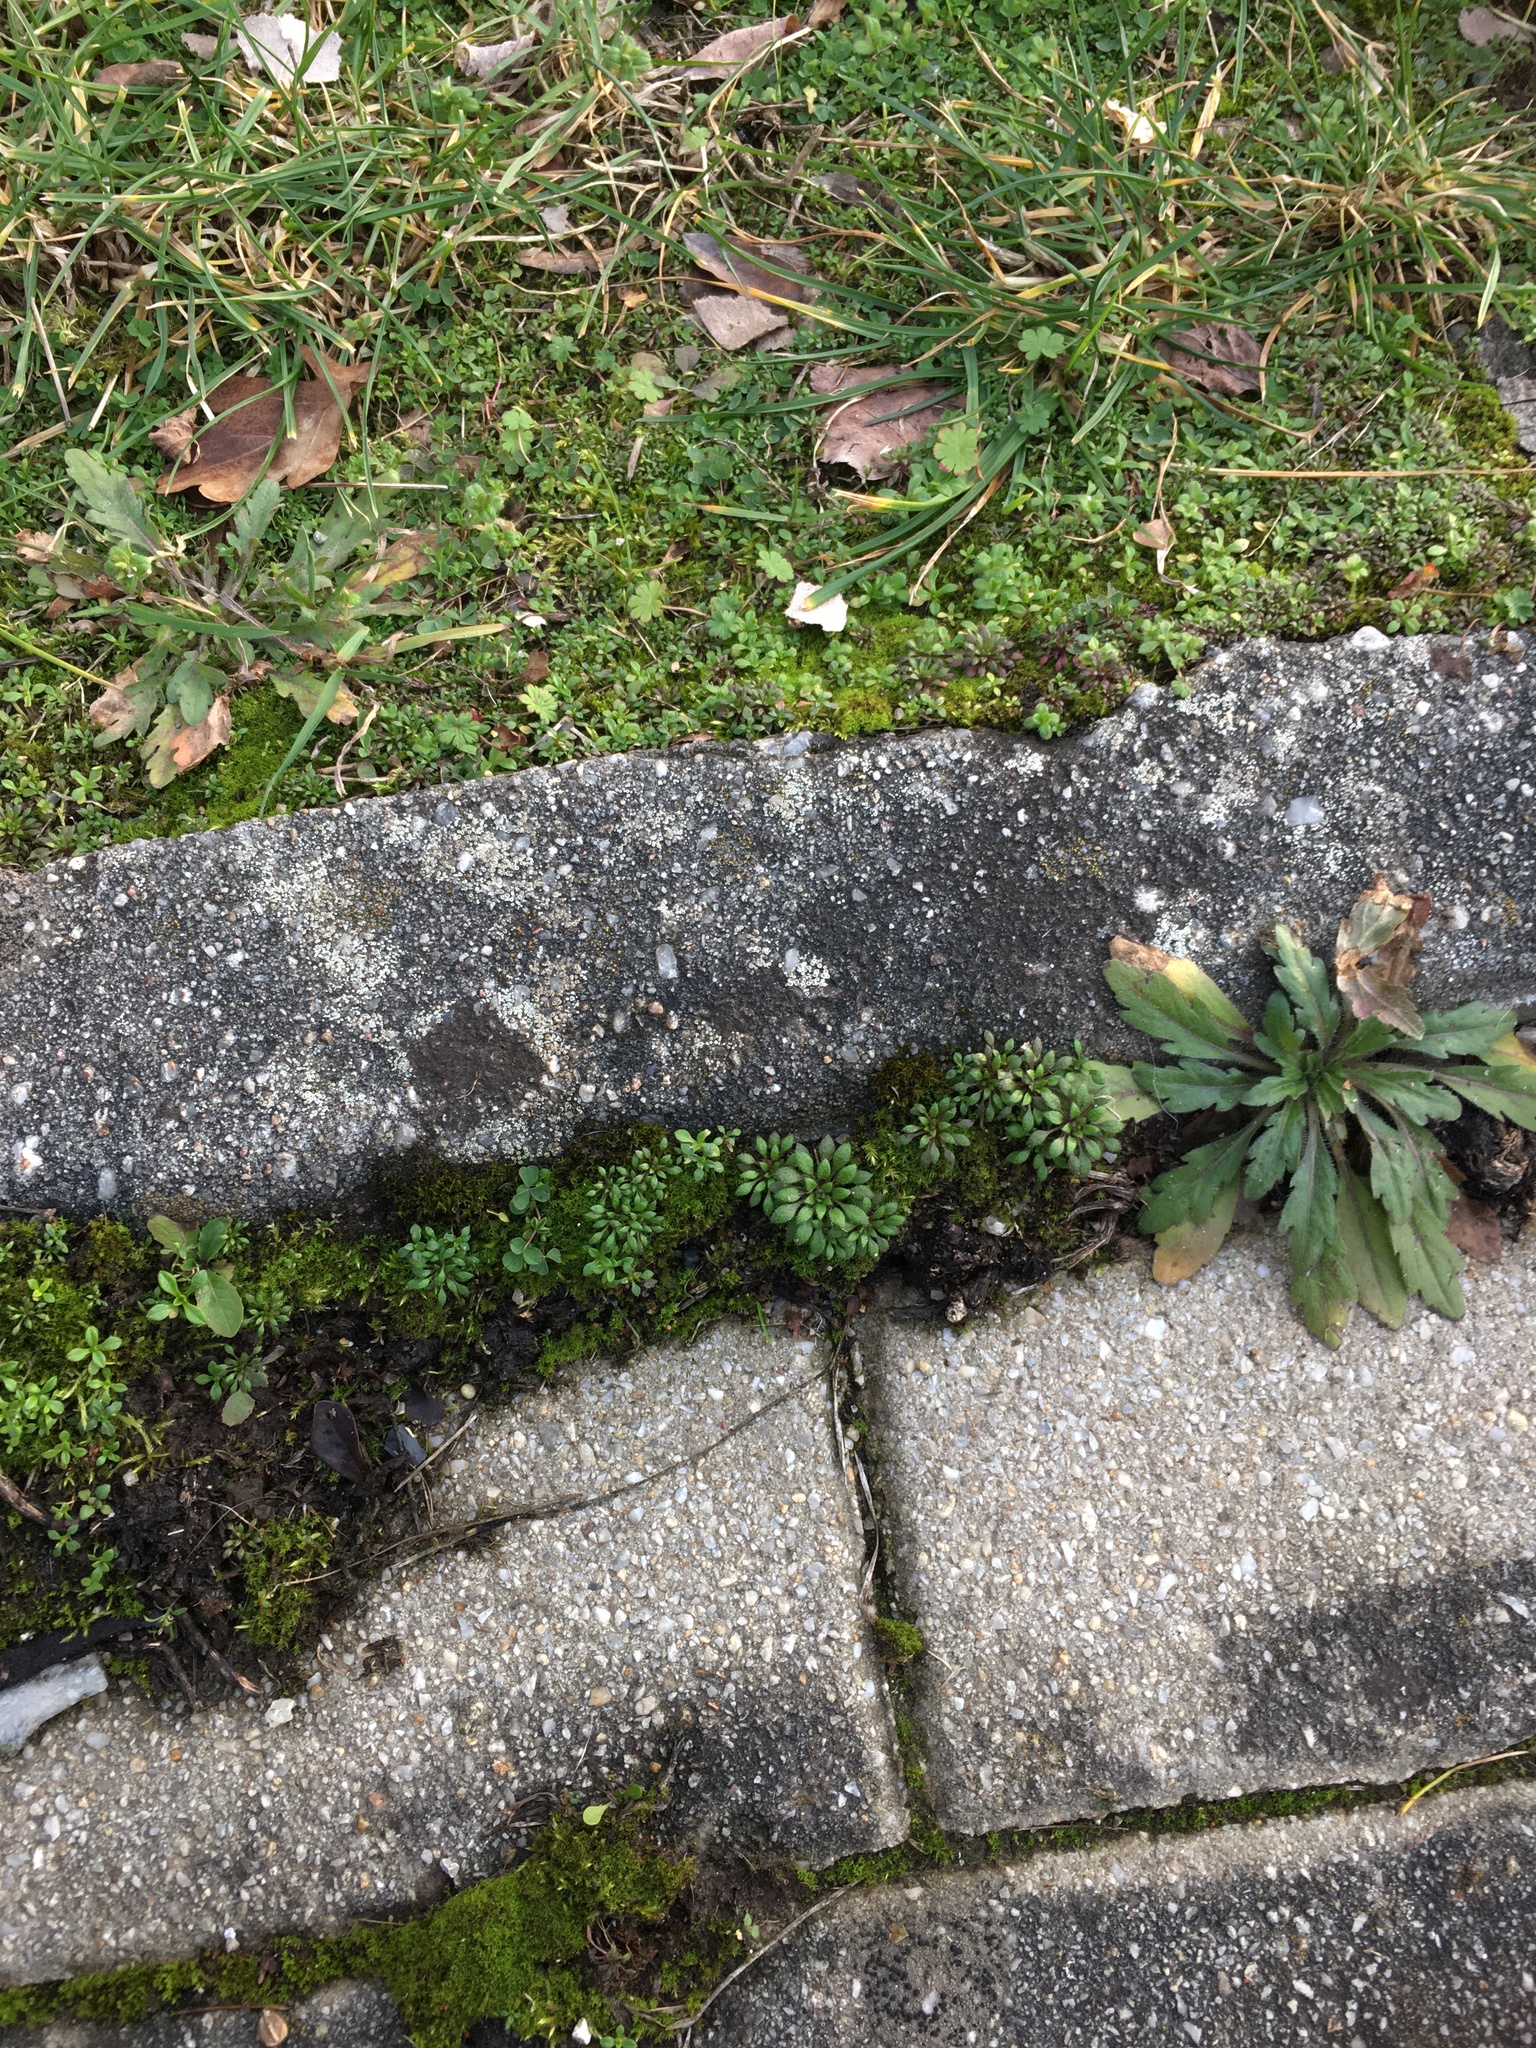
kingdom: Plantae
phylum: Tracheophyta
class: Magnoliopsida
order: Brassicales
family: Brassicaceae
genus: Draba
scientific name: Draba verna
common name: Spring draba
